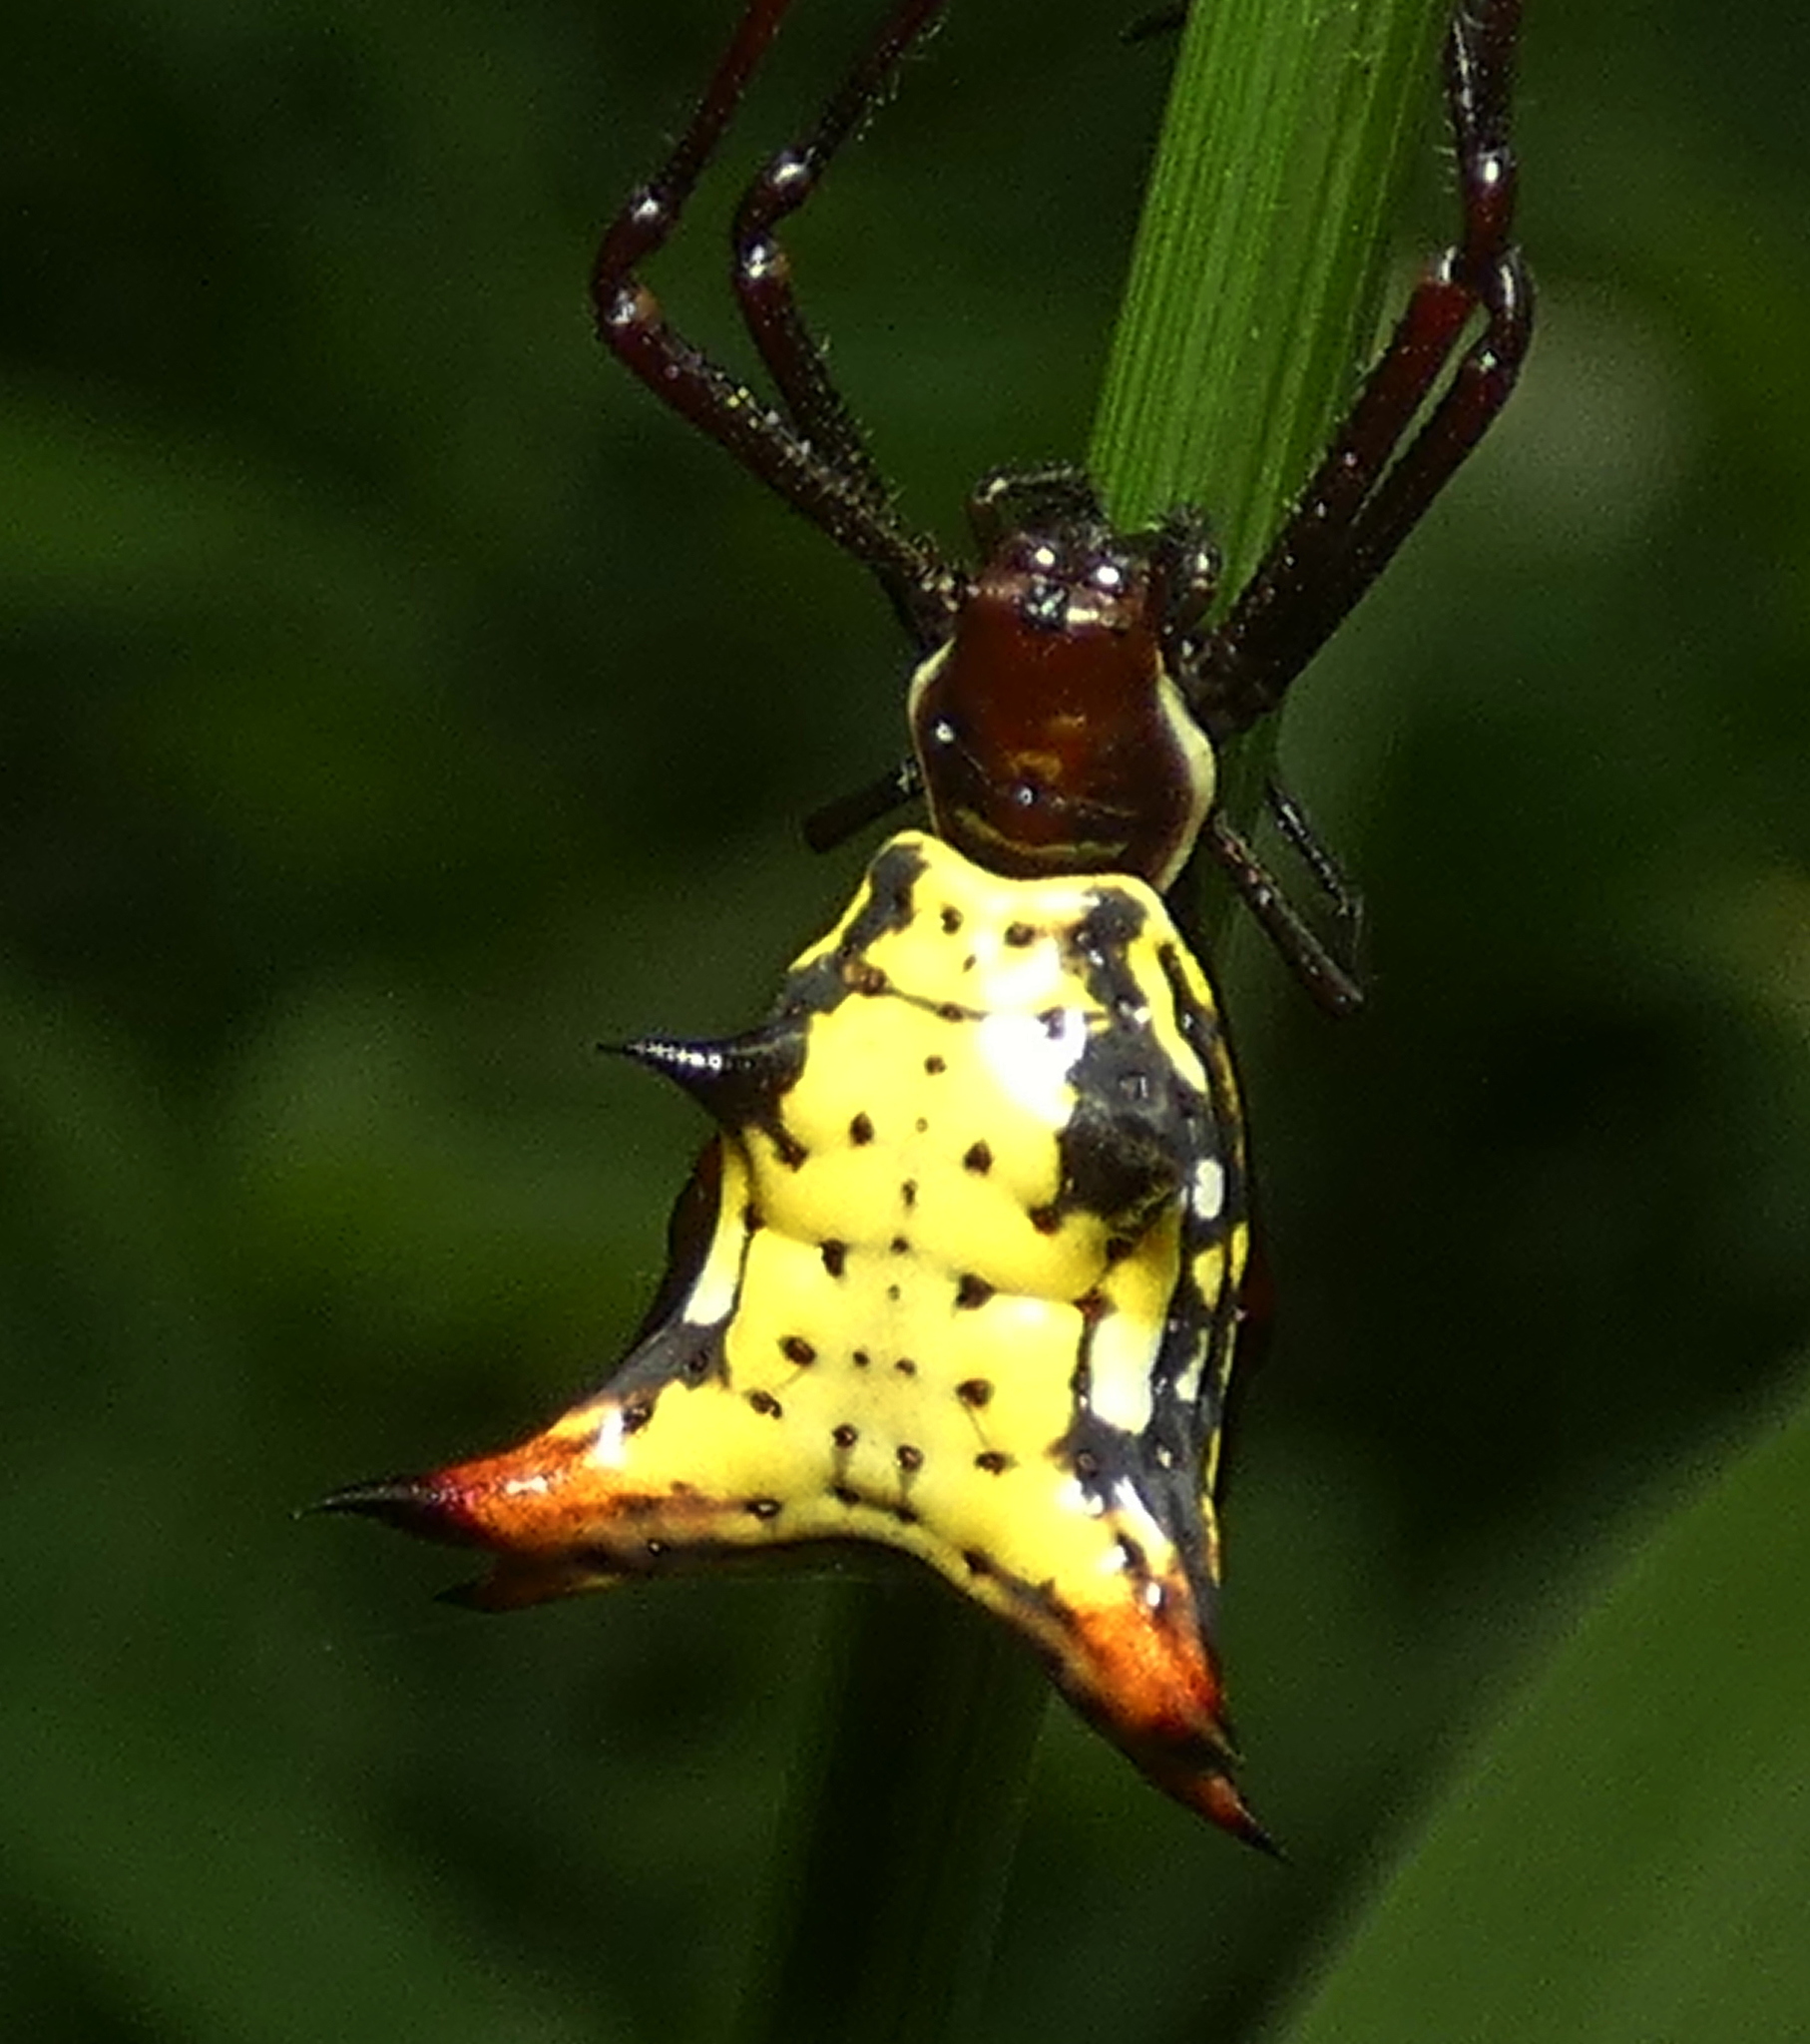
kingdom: Animalia
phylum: Arthropoda
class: Arachnida
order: Araneae
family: Araneidae
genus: Micrathena
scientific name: Micrathena fissispina
